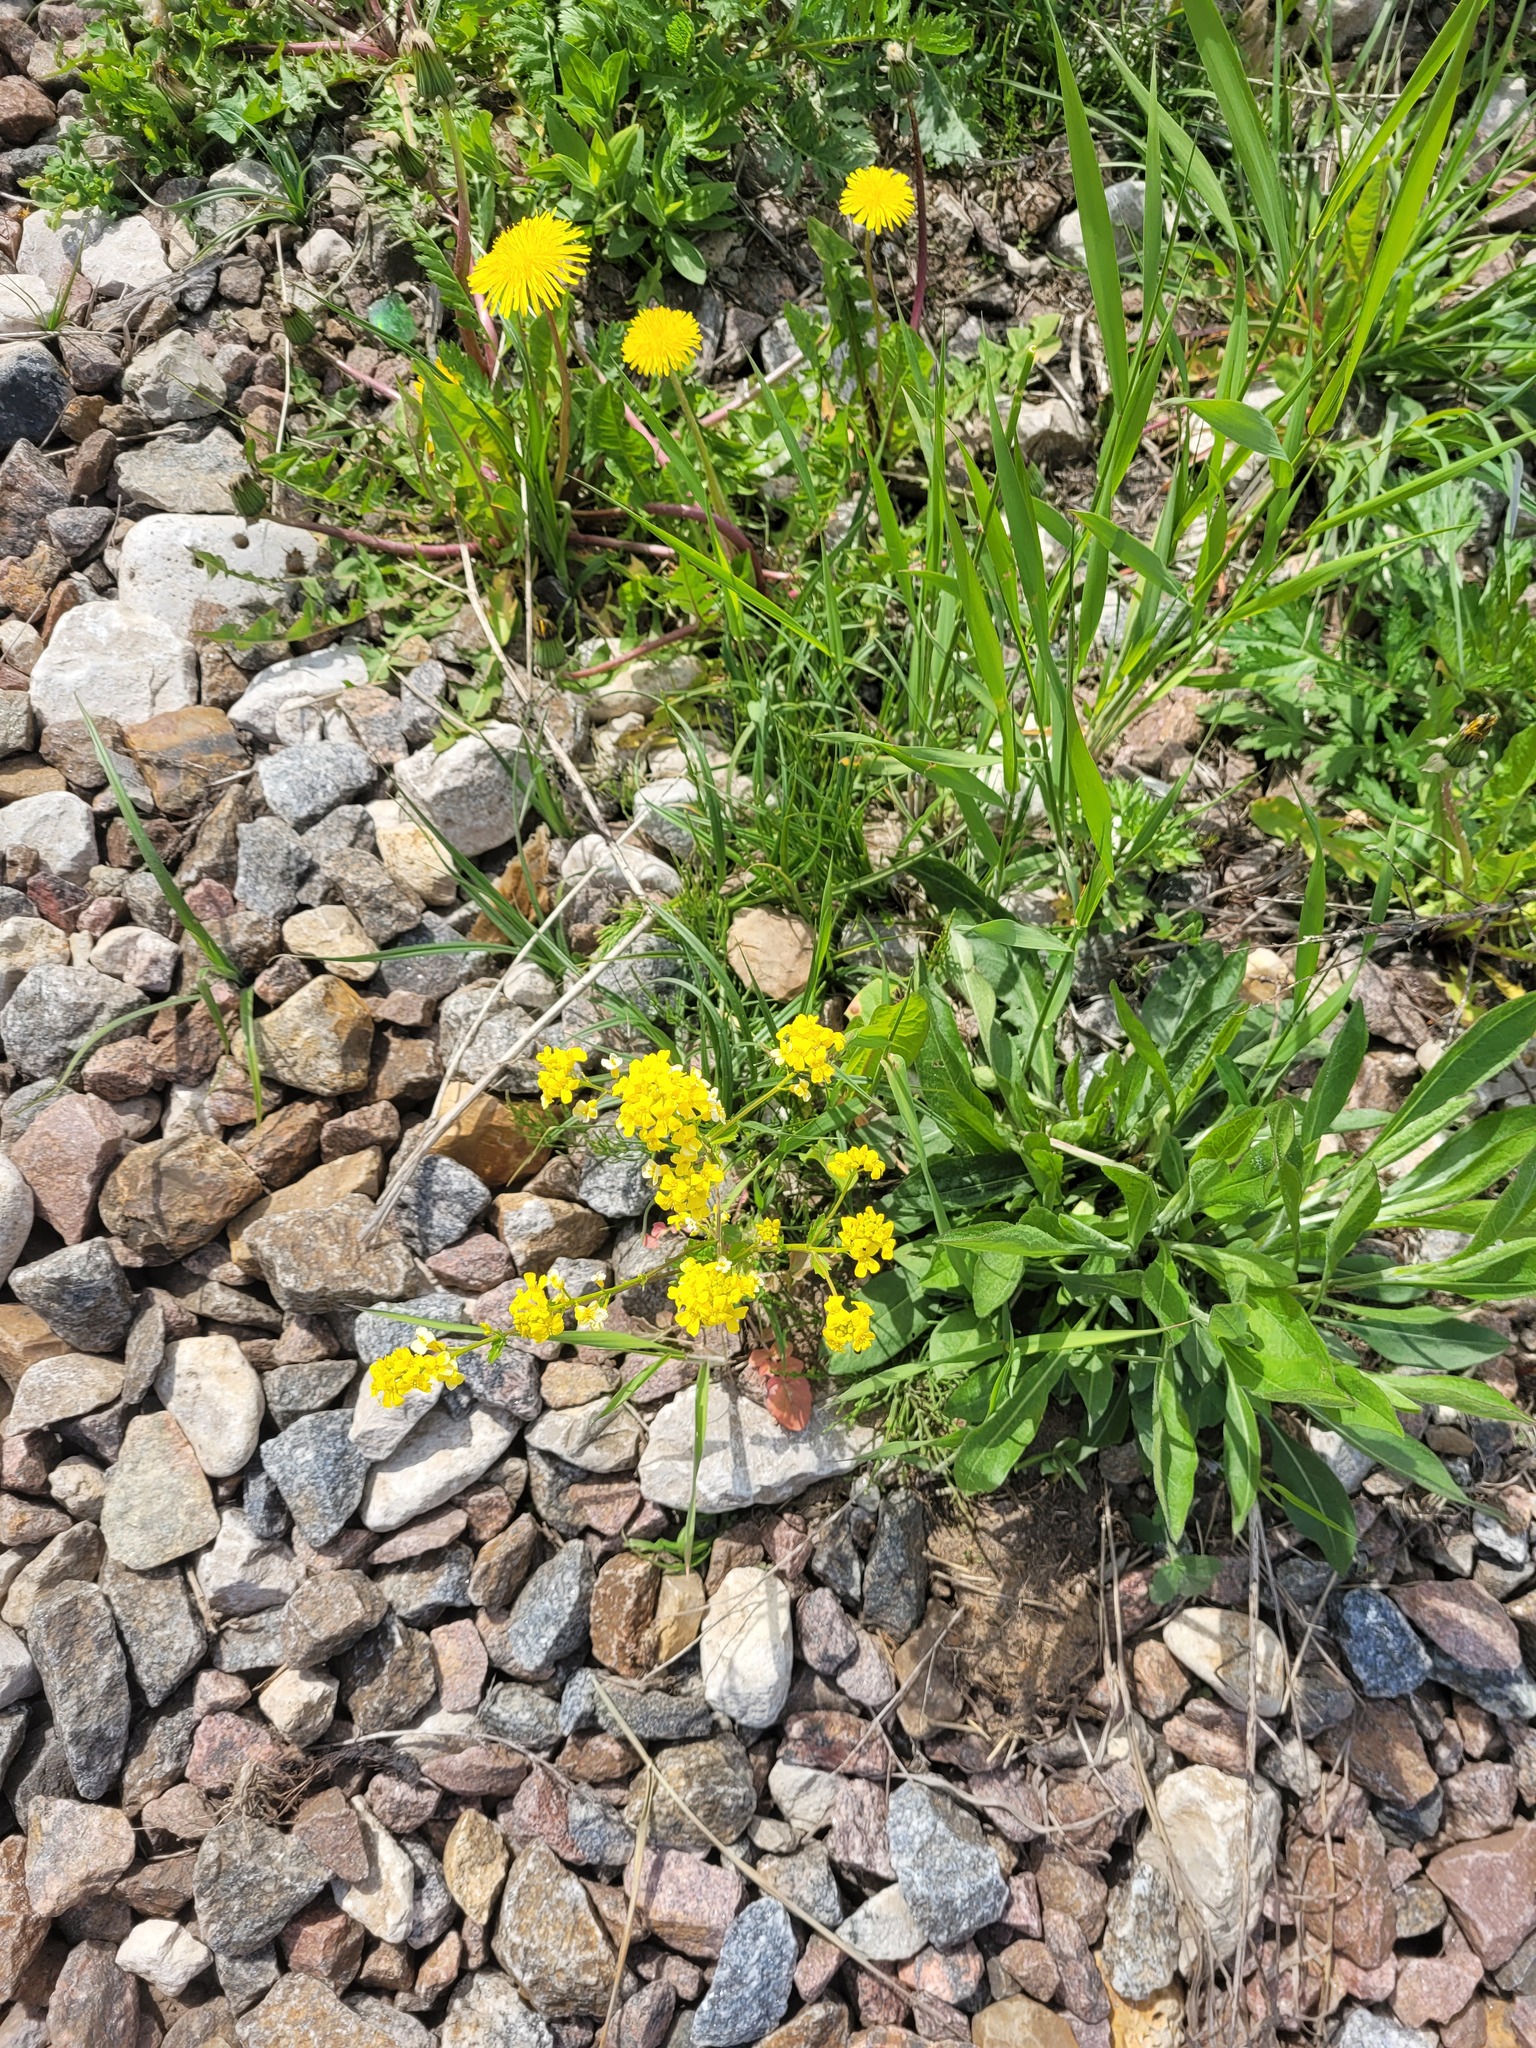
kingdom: Plantae
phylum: Tracheophyta
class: Magnoliopsida
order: Brassicales
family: Brassicaceae
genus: Barbarea
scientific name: Barbarea vulgaris
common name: Cressy-greens
